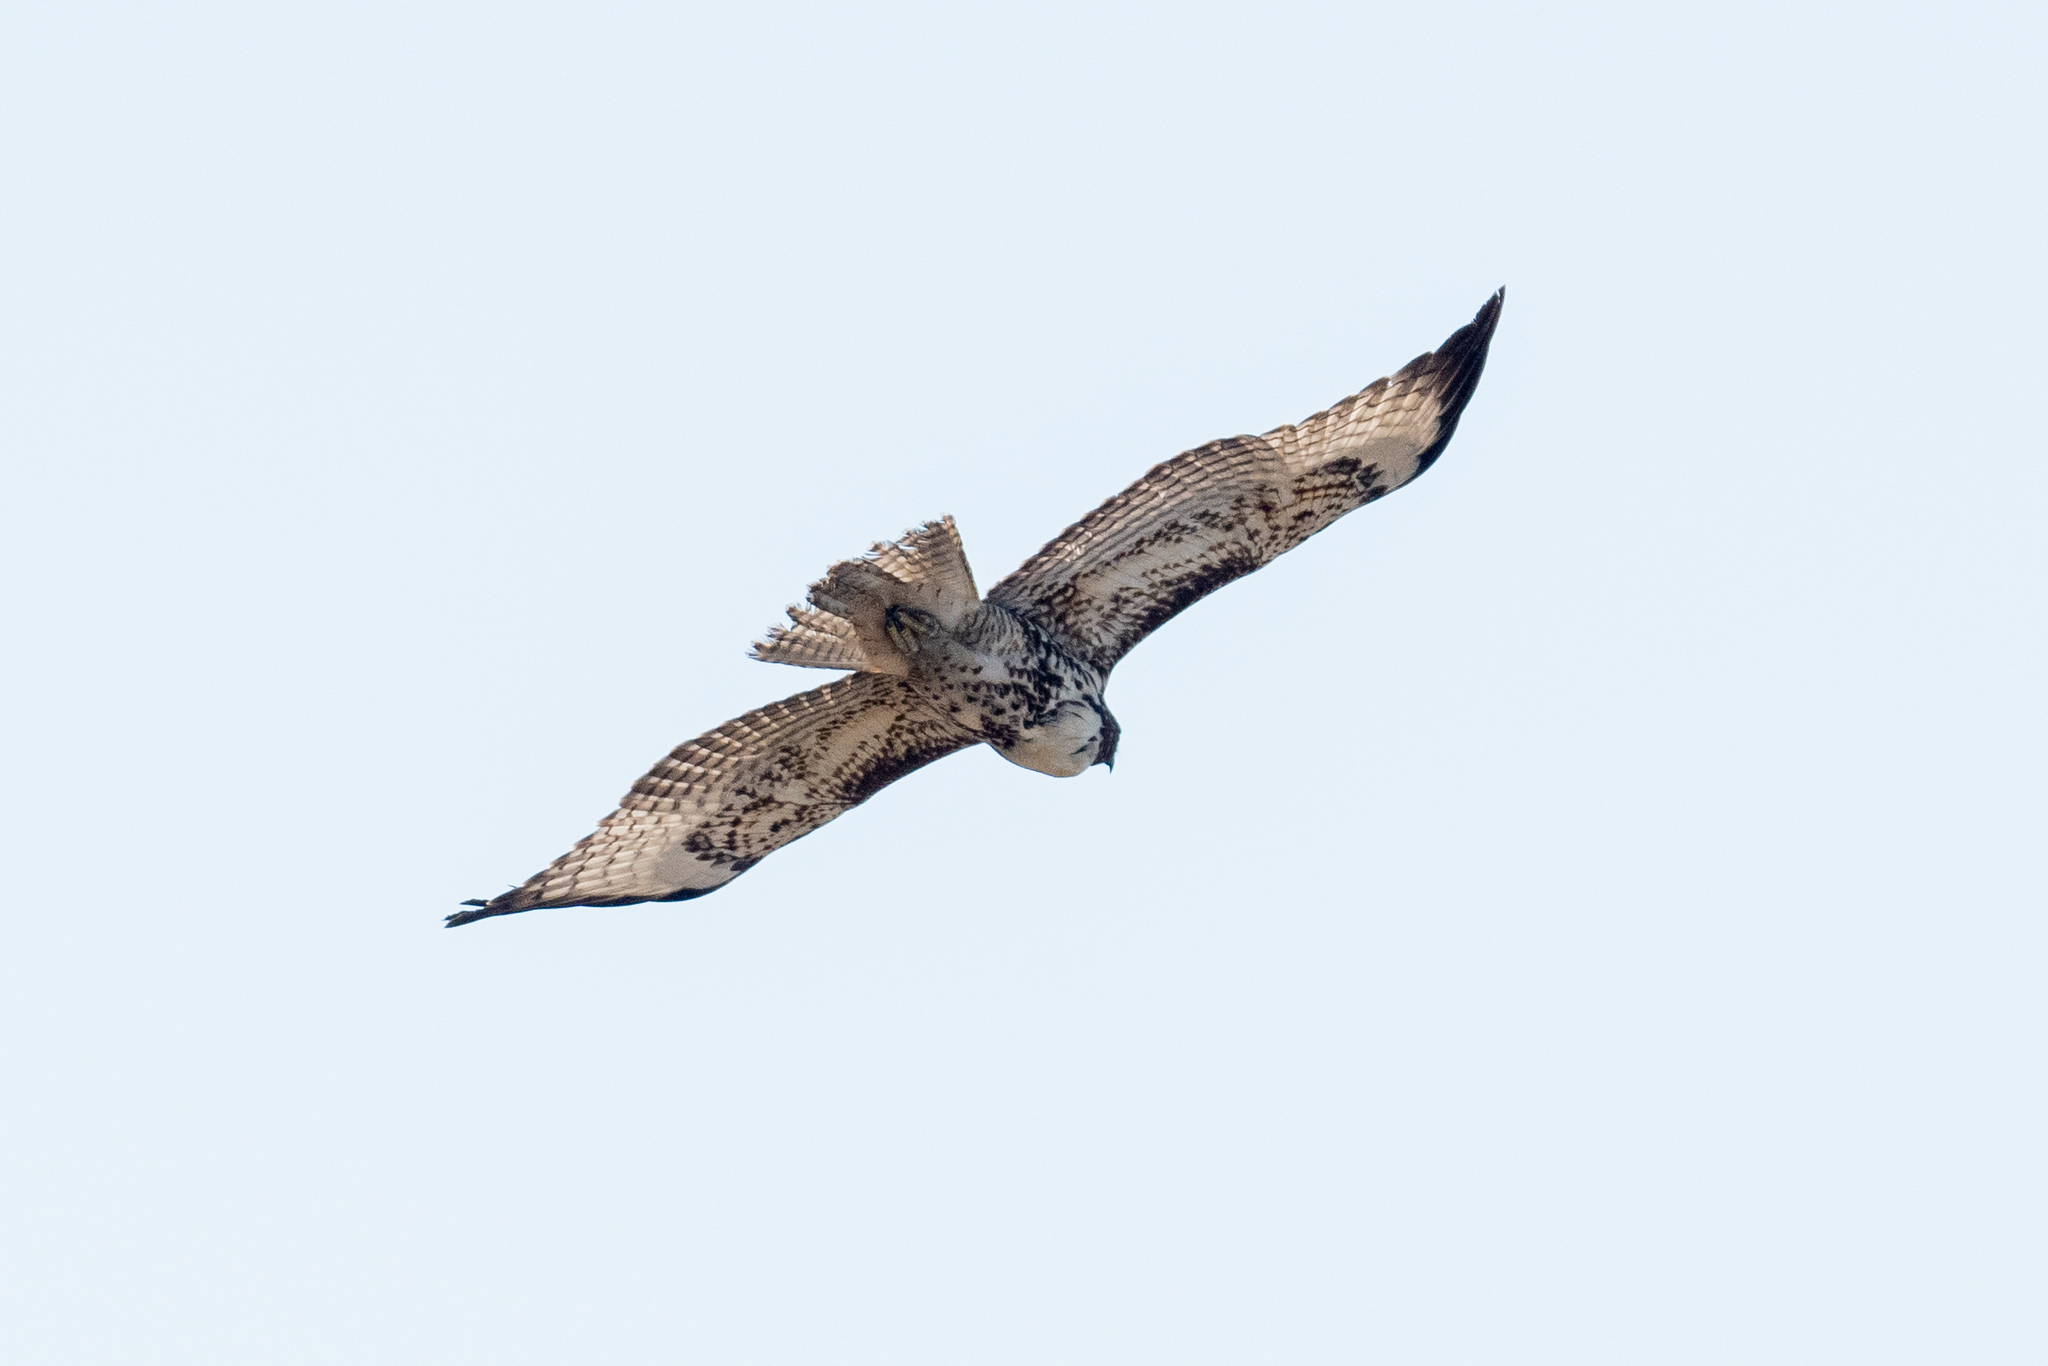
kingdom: Animalia
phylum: Chordata
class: Aves
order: Accipitriformes
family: Accipitridae
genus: Buteo
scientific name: Buteo jamaicensis
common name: Red-tailed hawk
